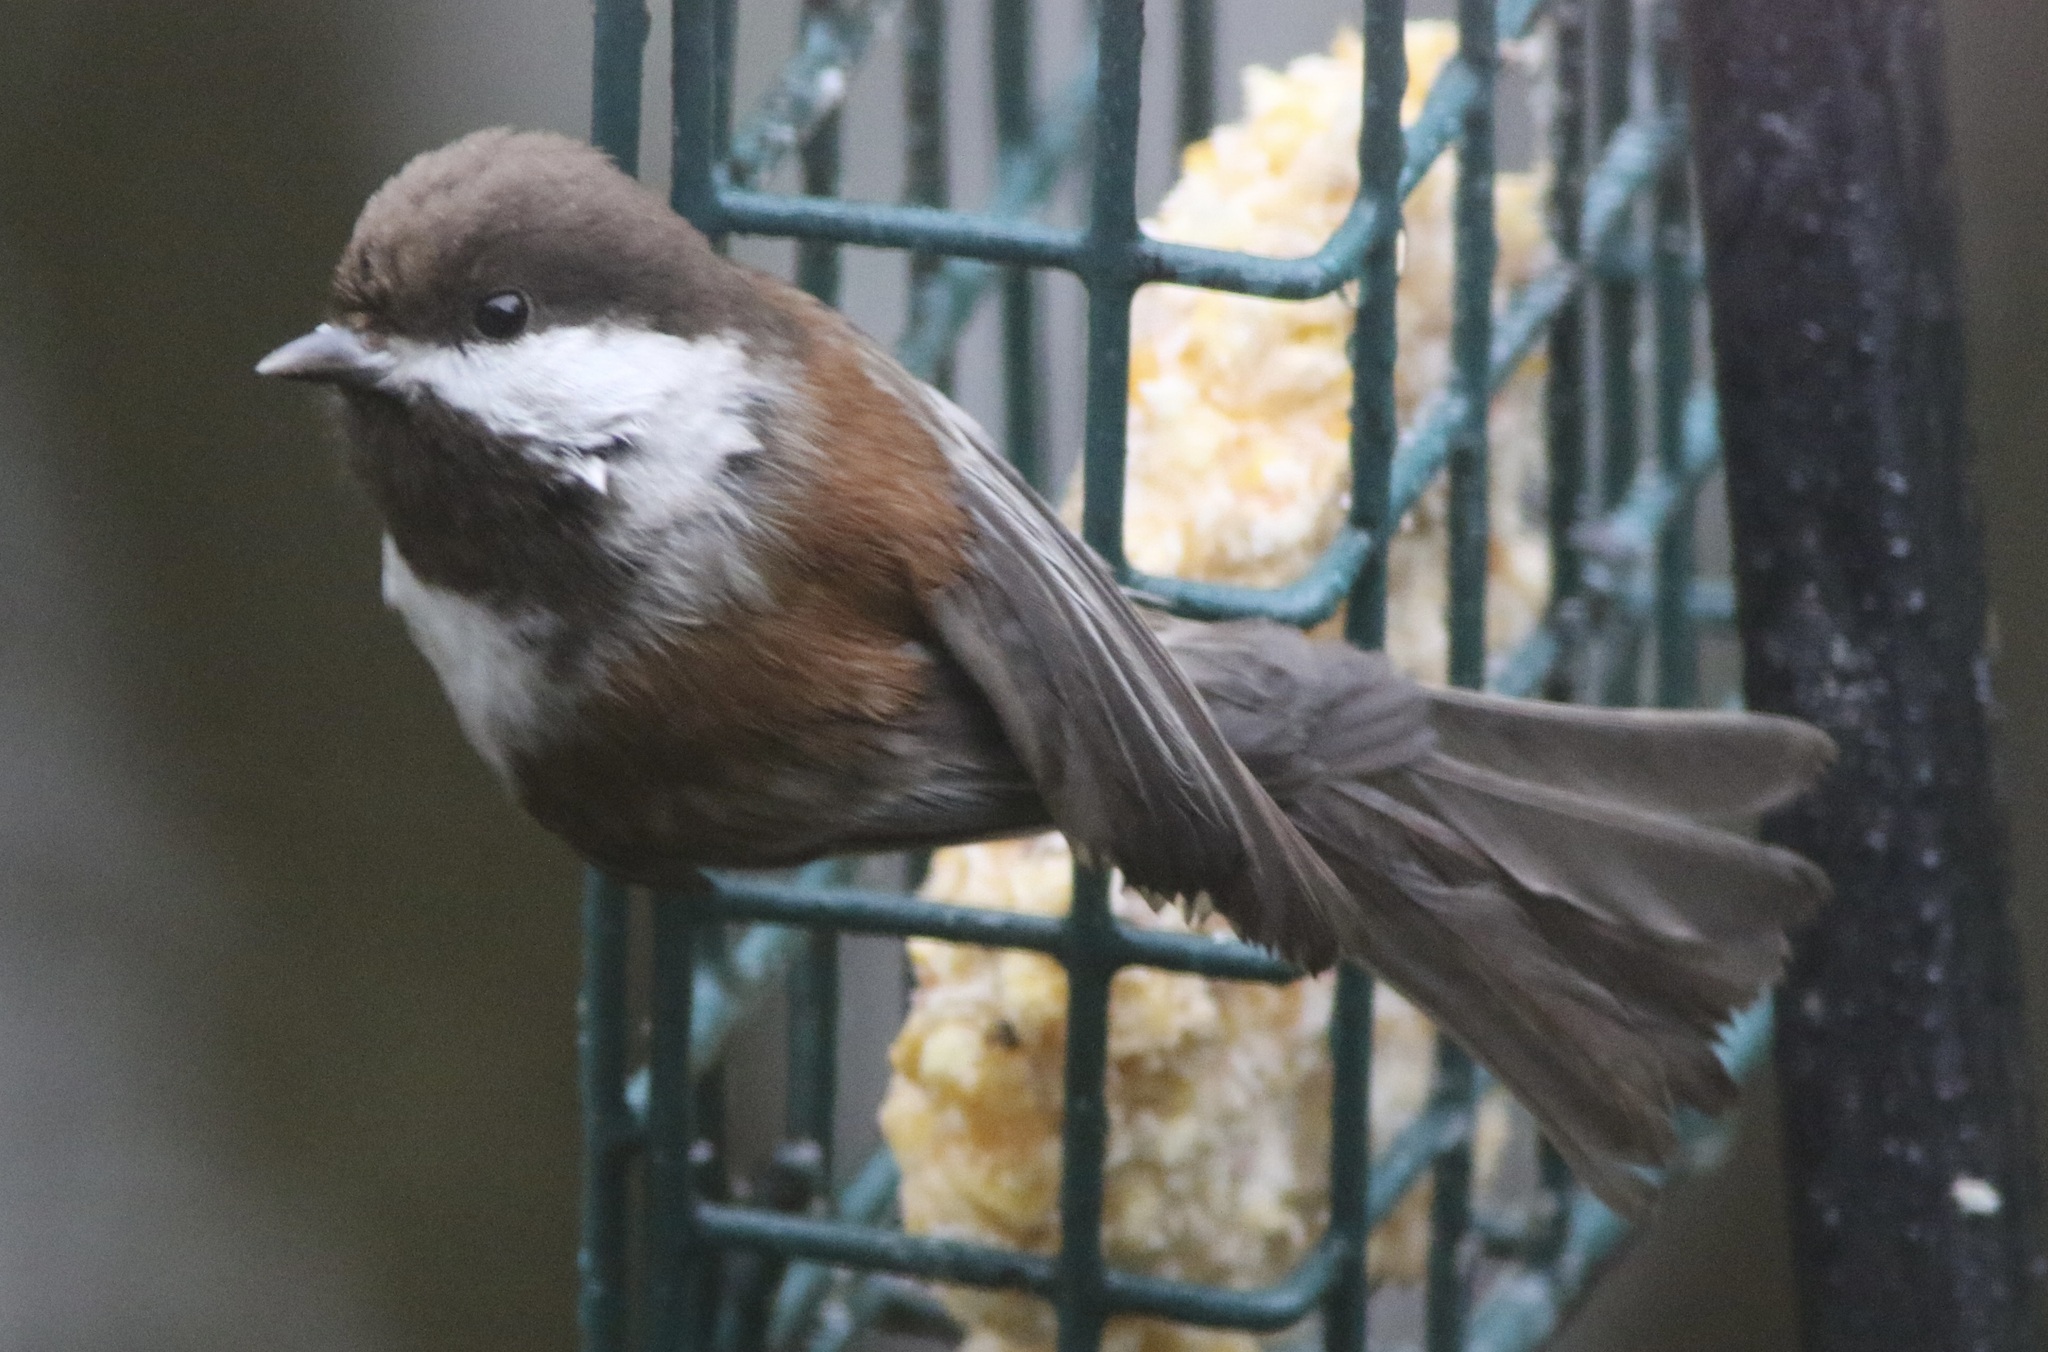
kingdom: Animalia
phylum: Chordata
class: Aves
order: Passeriformes
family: Paridae
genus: Poecile
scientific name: Poecile rufescens
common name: Chestnut-backed chickadee
